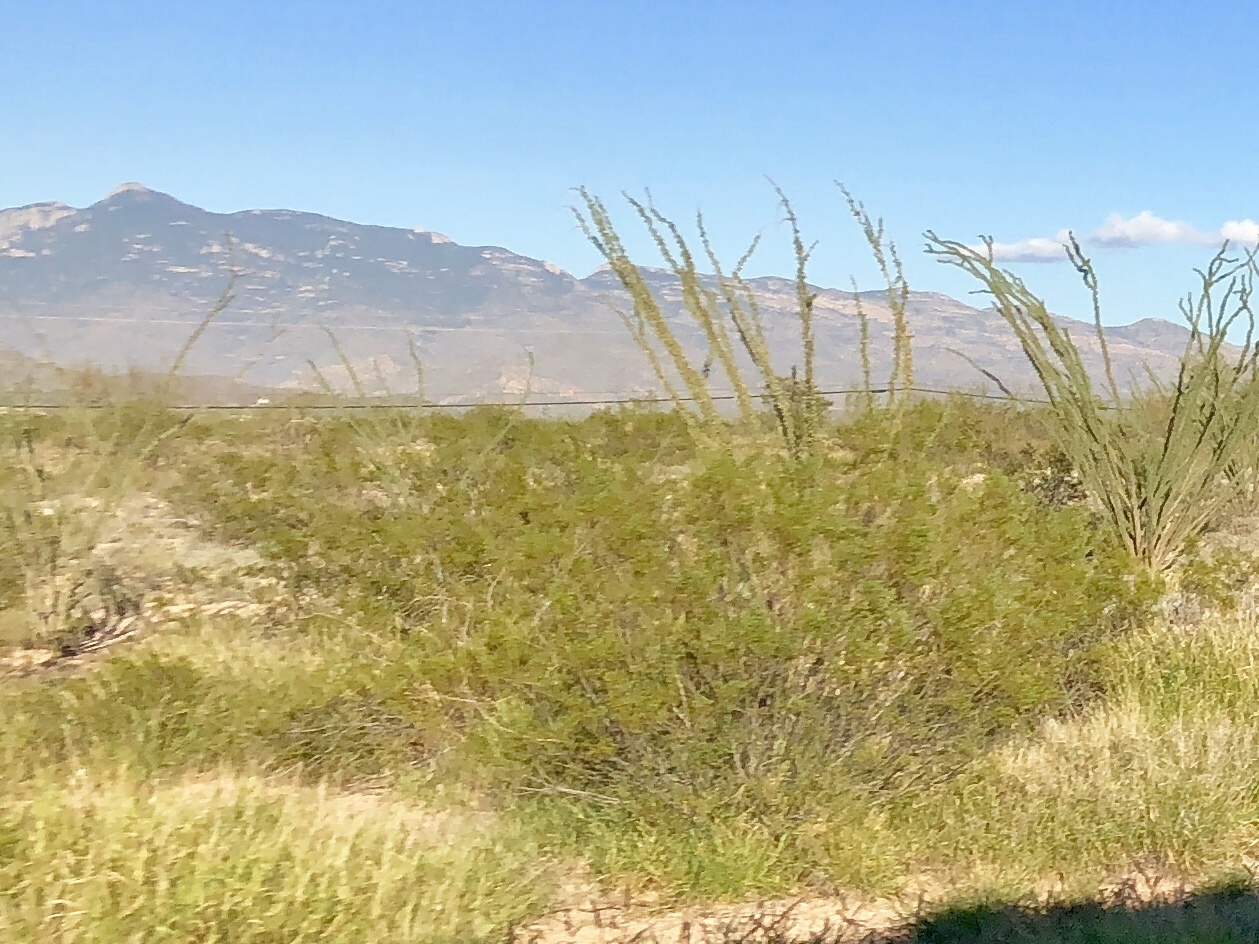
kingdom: Plantae
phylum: Tracheophyta
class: Magnoliopsida
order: Zygophyllales
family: Zygophyllaceae
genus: Larrea
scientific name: Larrea tridentata
